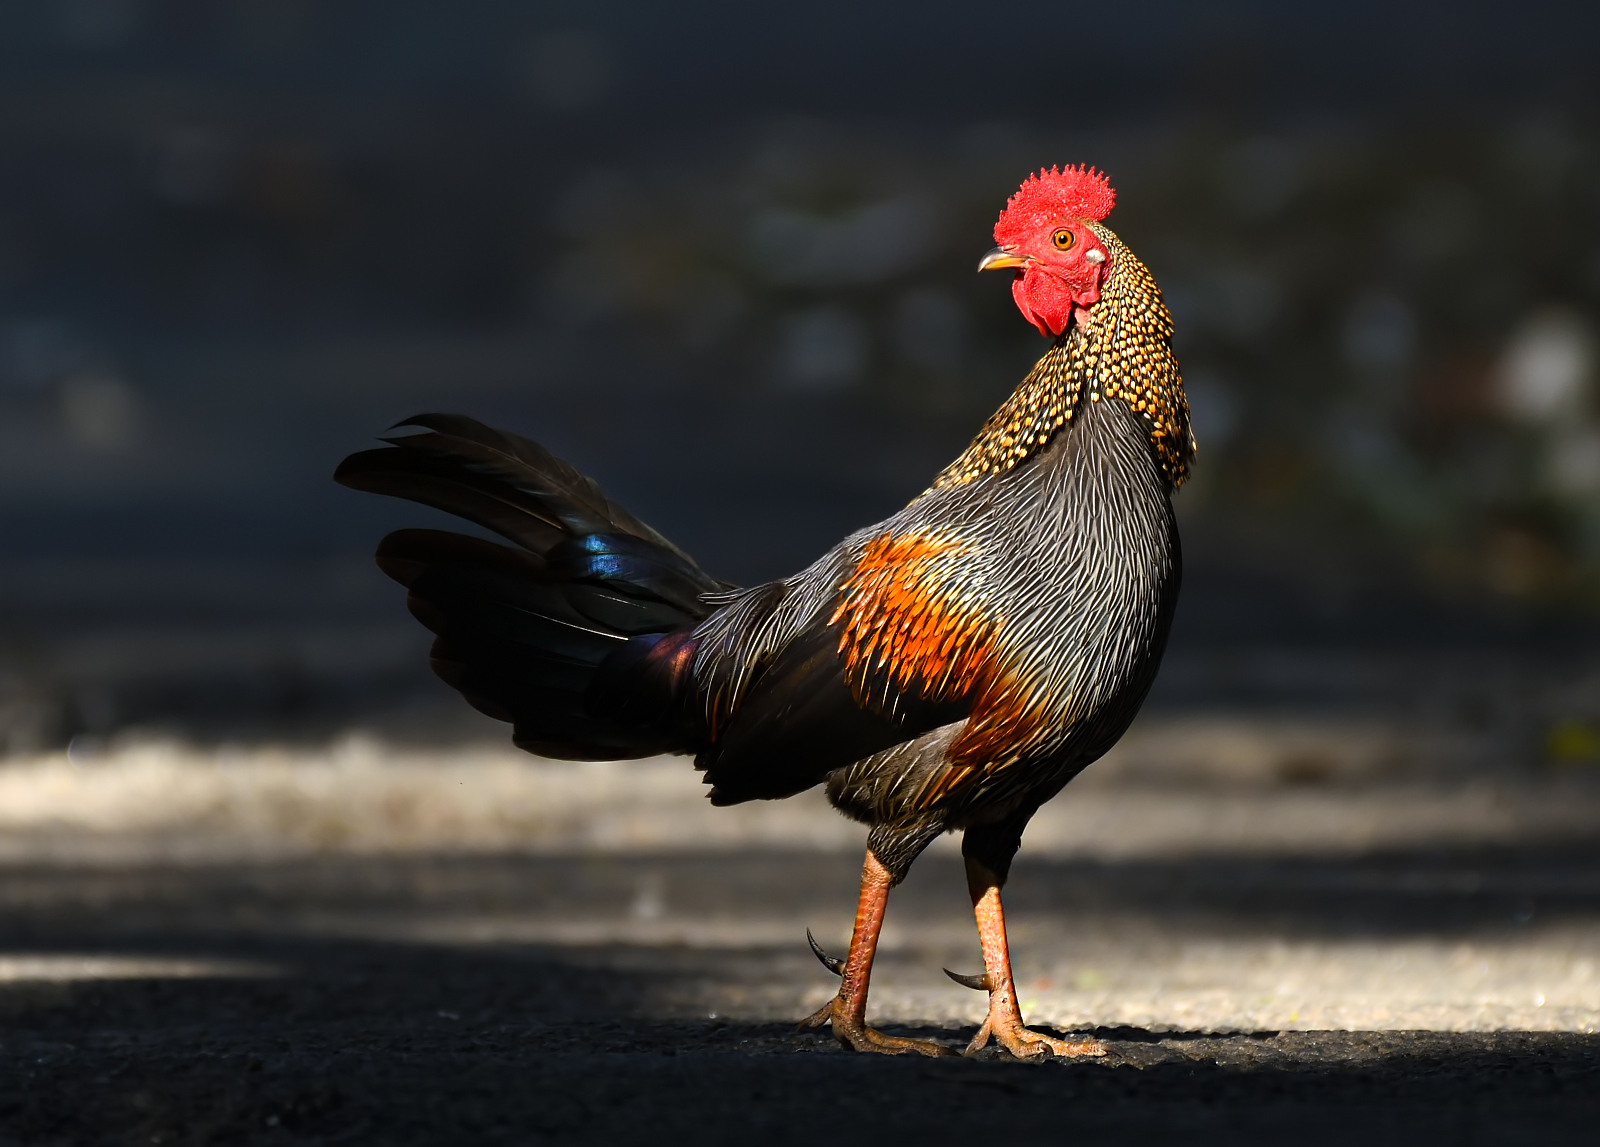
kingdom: Animalia
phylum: Chordata
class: Aves
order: Galliformes
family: Phasianidae
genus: Gallus
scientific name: Gallus sonneratii
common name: Grey junglefowl
